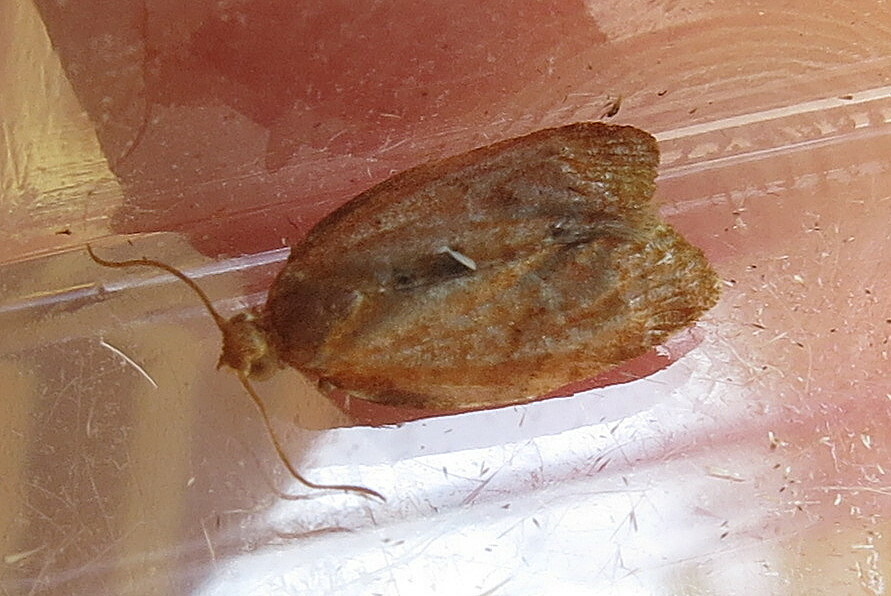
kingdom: Animalia
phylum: Arthropoda
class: Insecta
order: Lepidoptera
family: Tortricidae
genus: Clepsis
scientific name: Clepsis consimilana
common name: Privet tortrix
